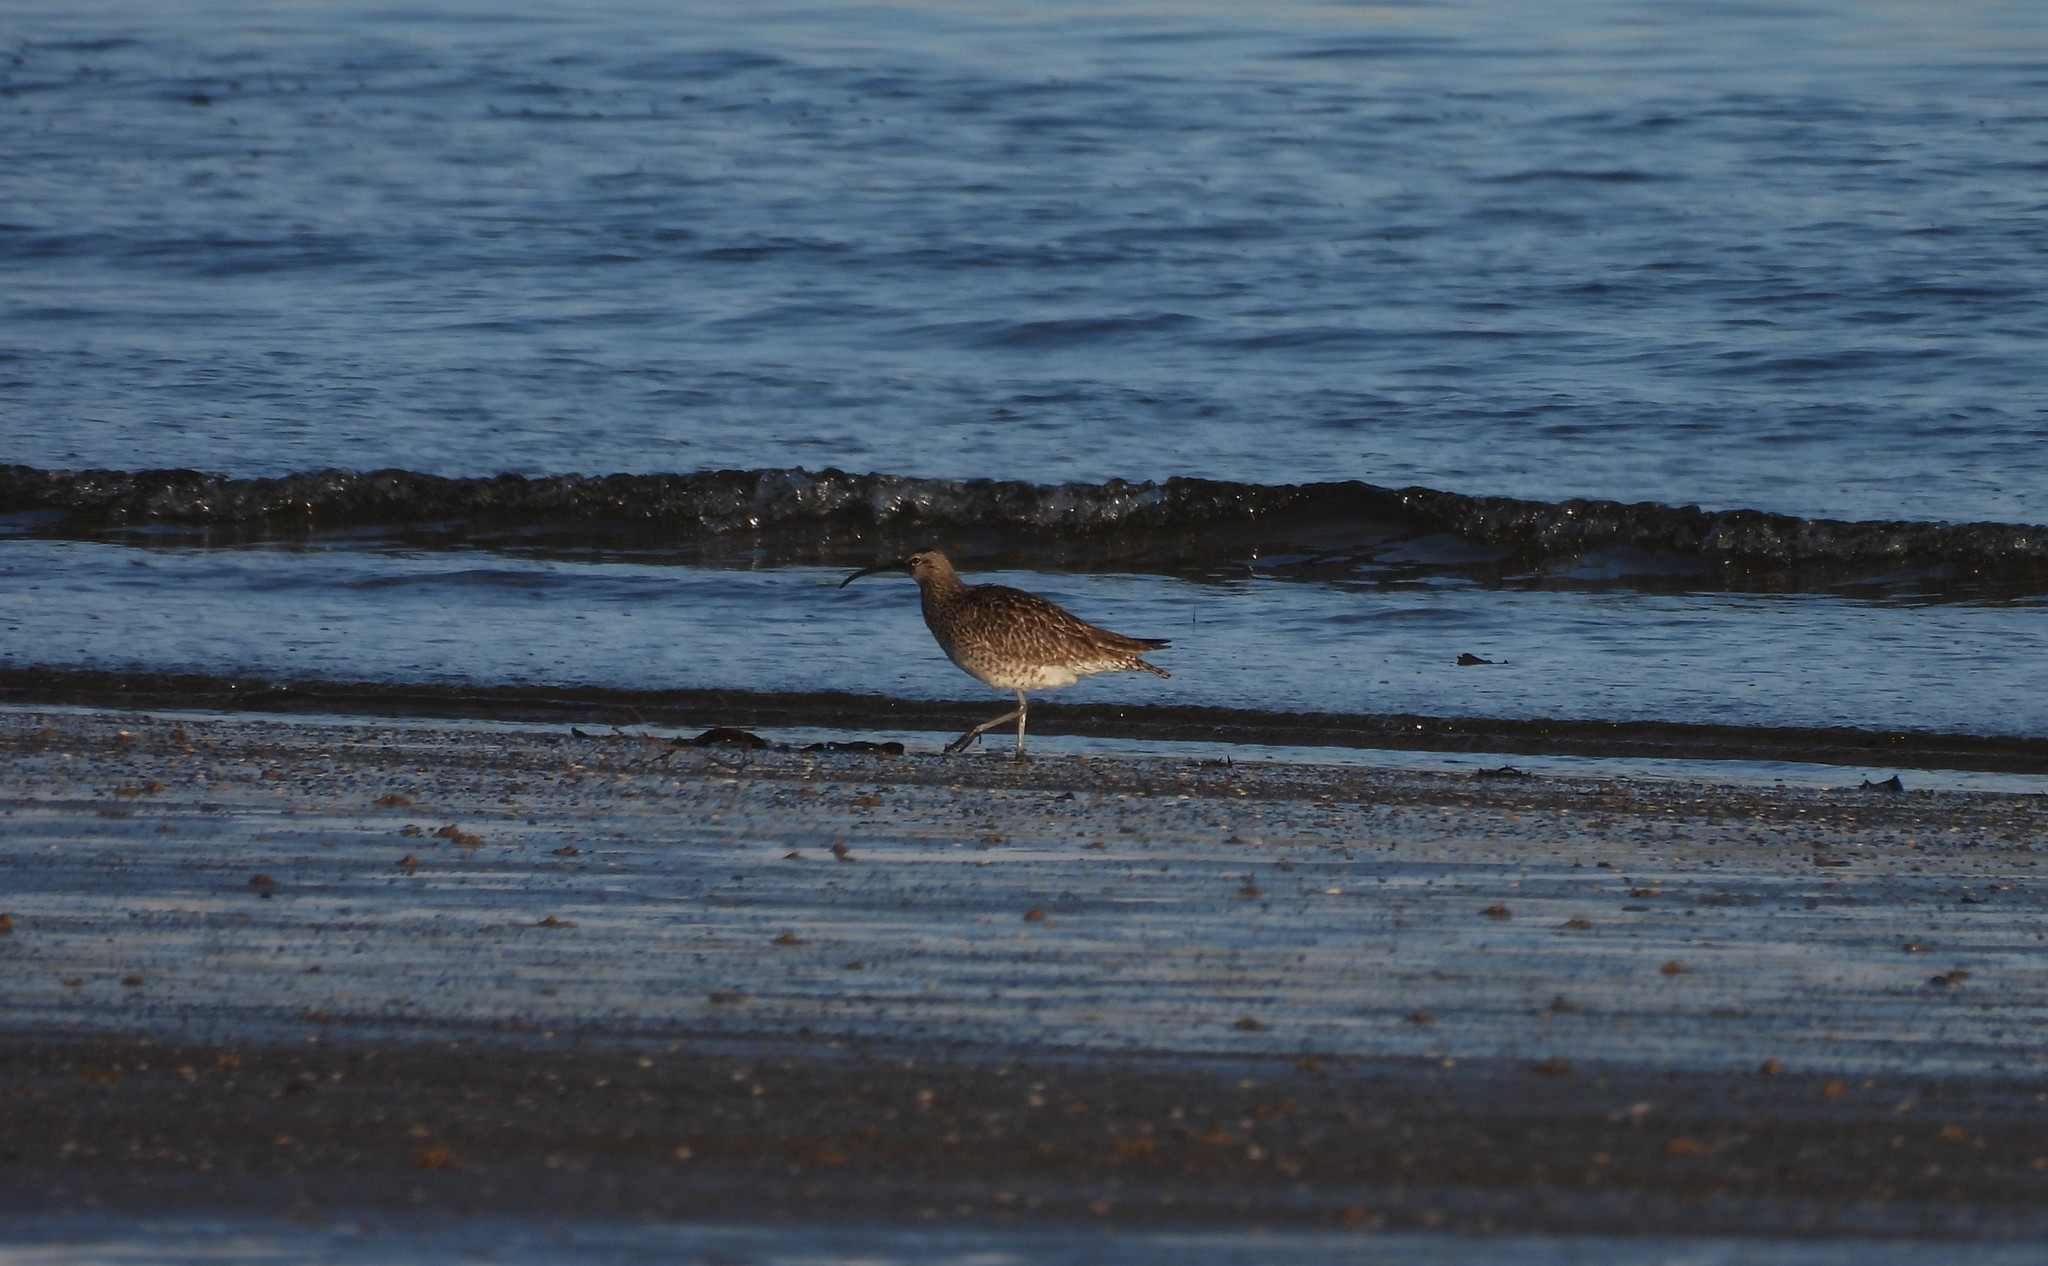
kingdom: Animalia
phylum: Chordata
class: Aves
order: Charadriiformes
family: Scolopacidae
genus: Numenius
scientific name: Numenius phaeopus
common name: Whimbrel
